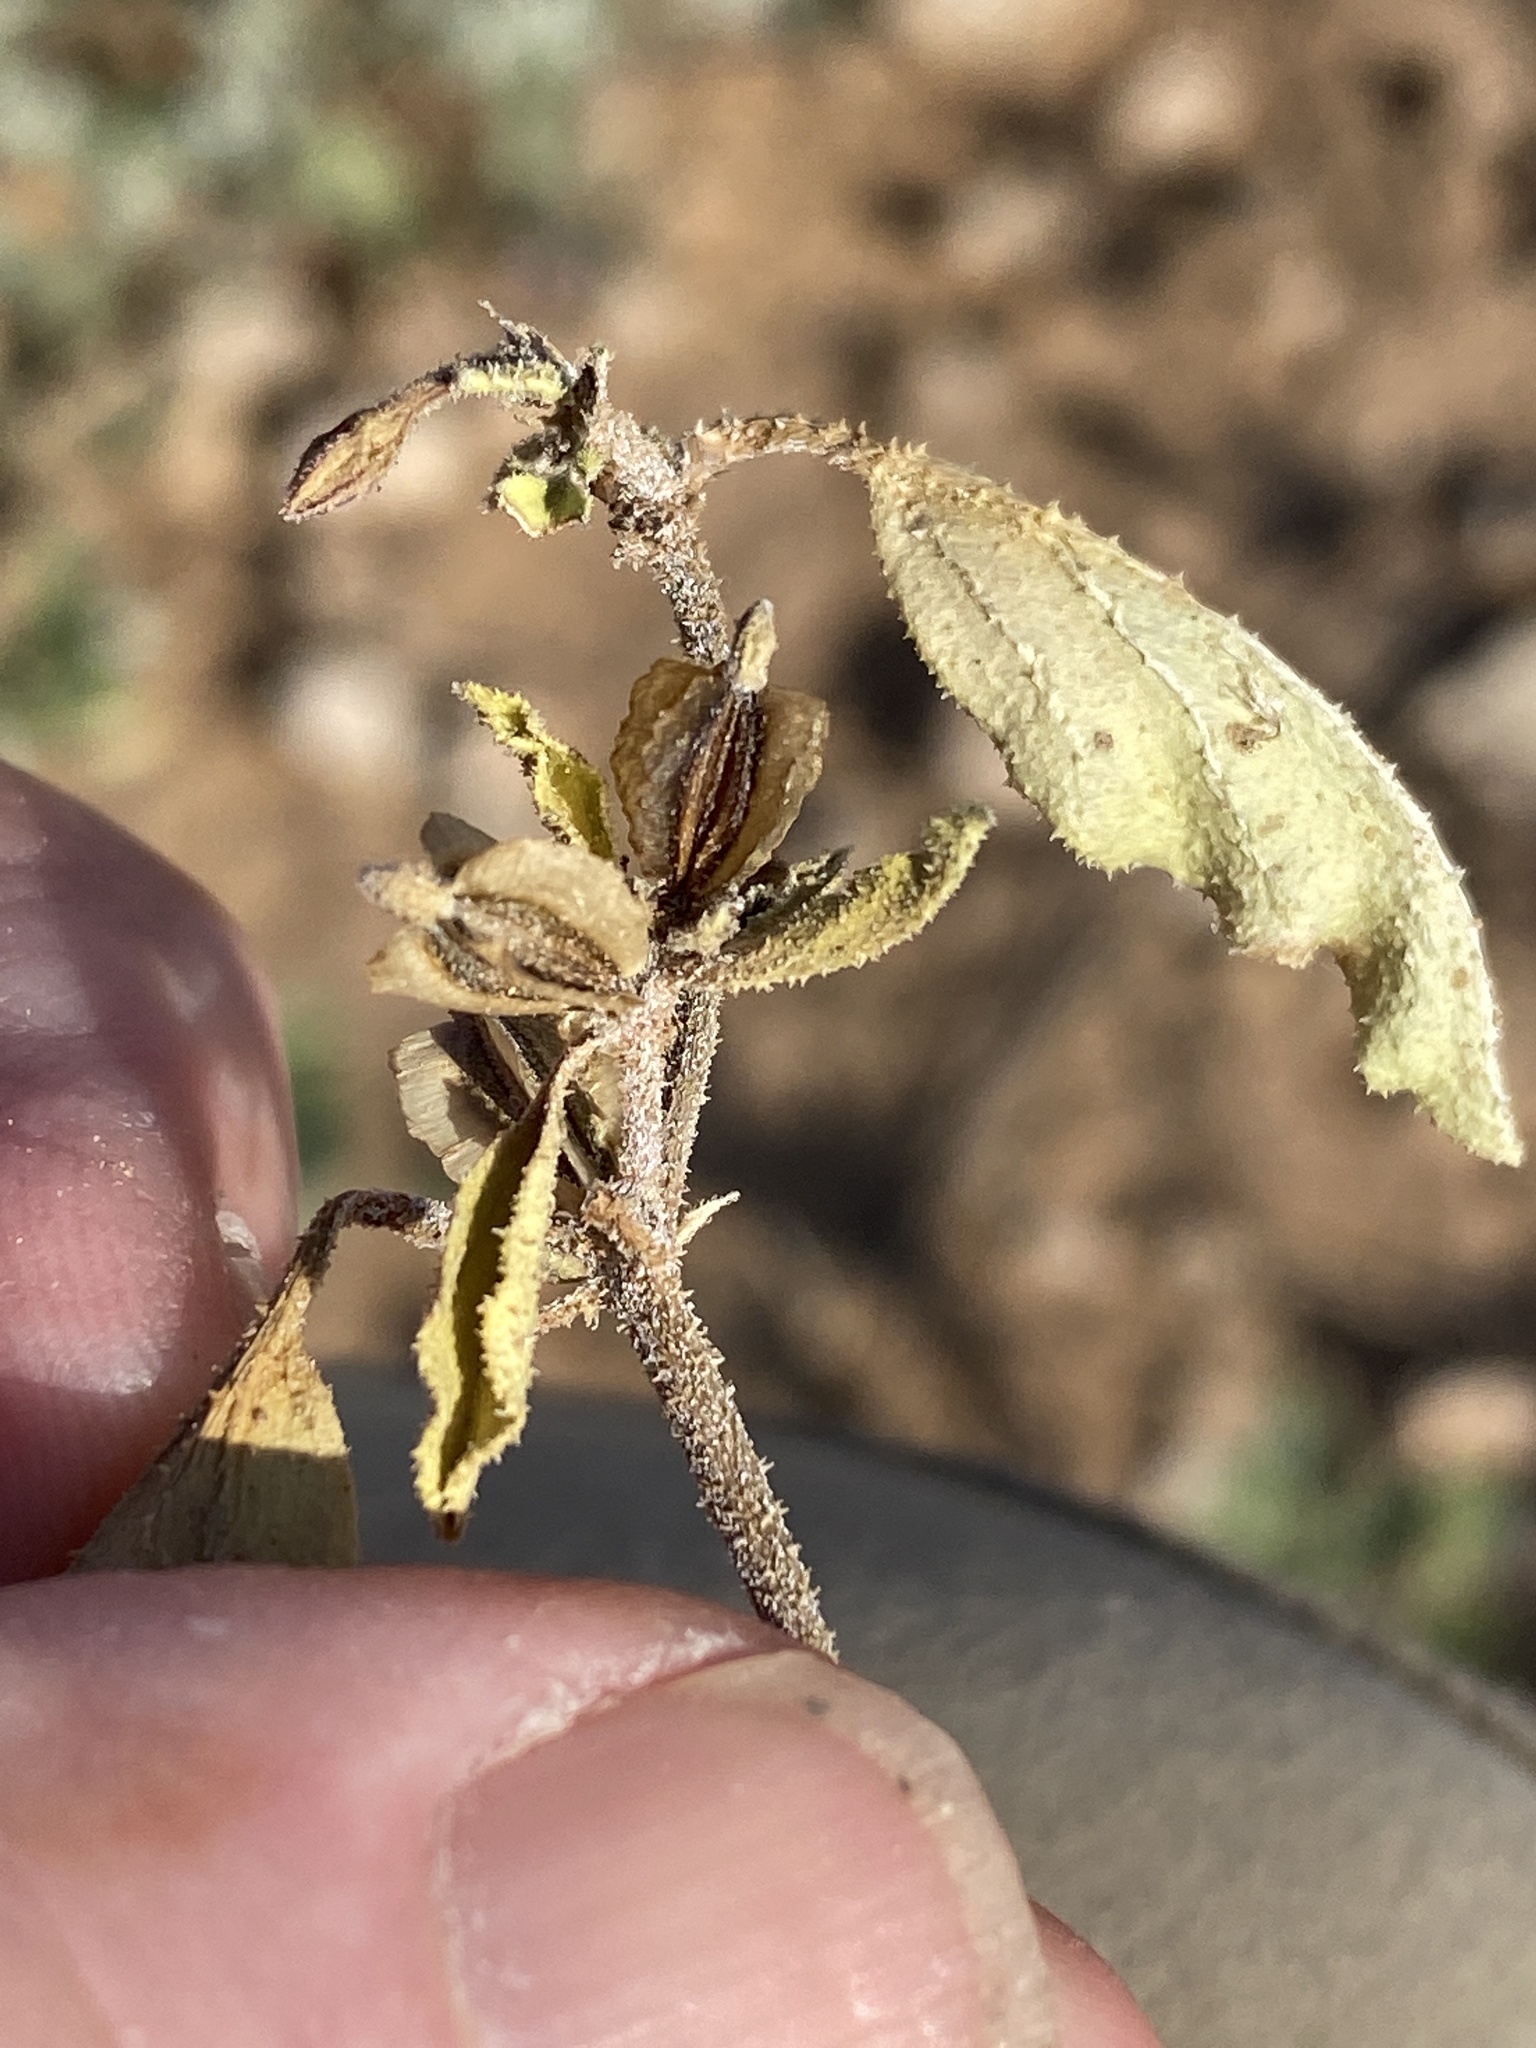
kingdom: Plantae
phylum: Tracheophyta
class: Magnoliopsida
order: Caryophyllales
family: Nyctaginaceae
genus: Acleisanthes
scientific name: Acleisanthes diffusa
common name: Spreading moonpod
